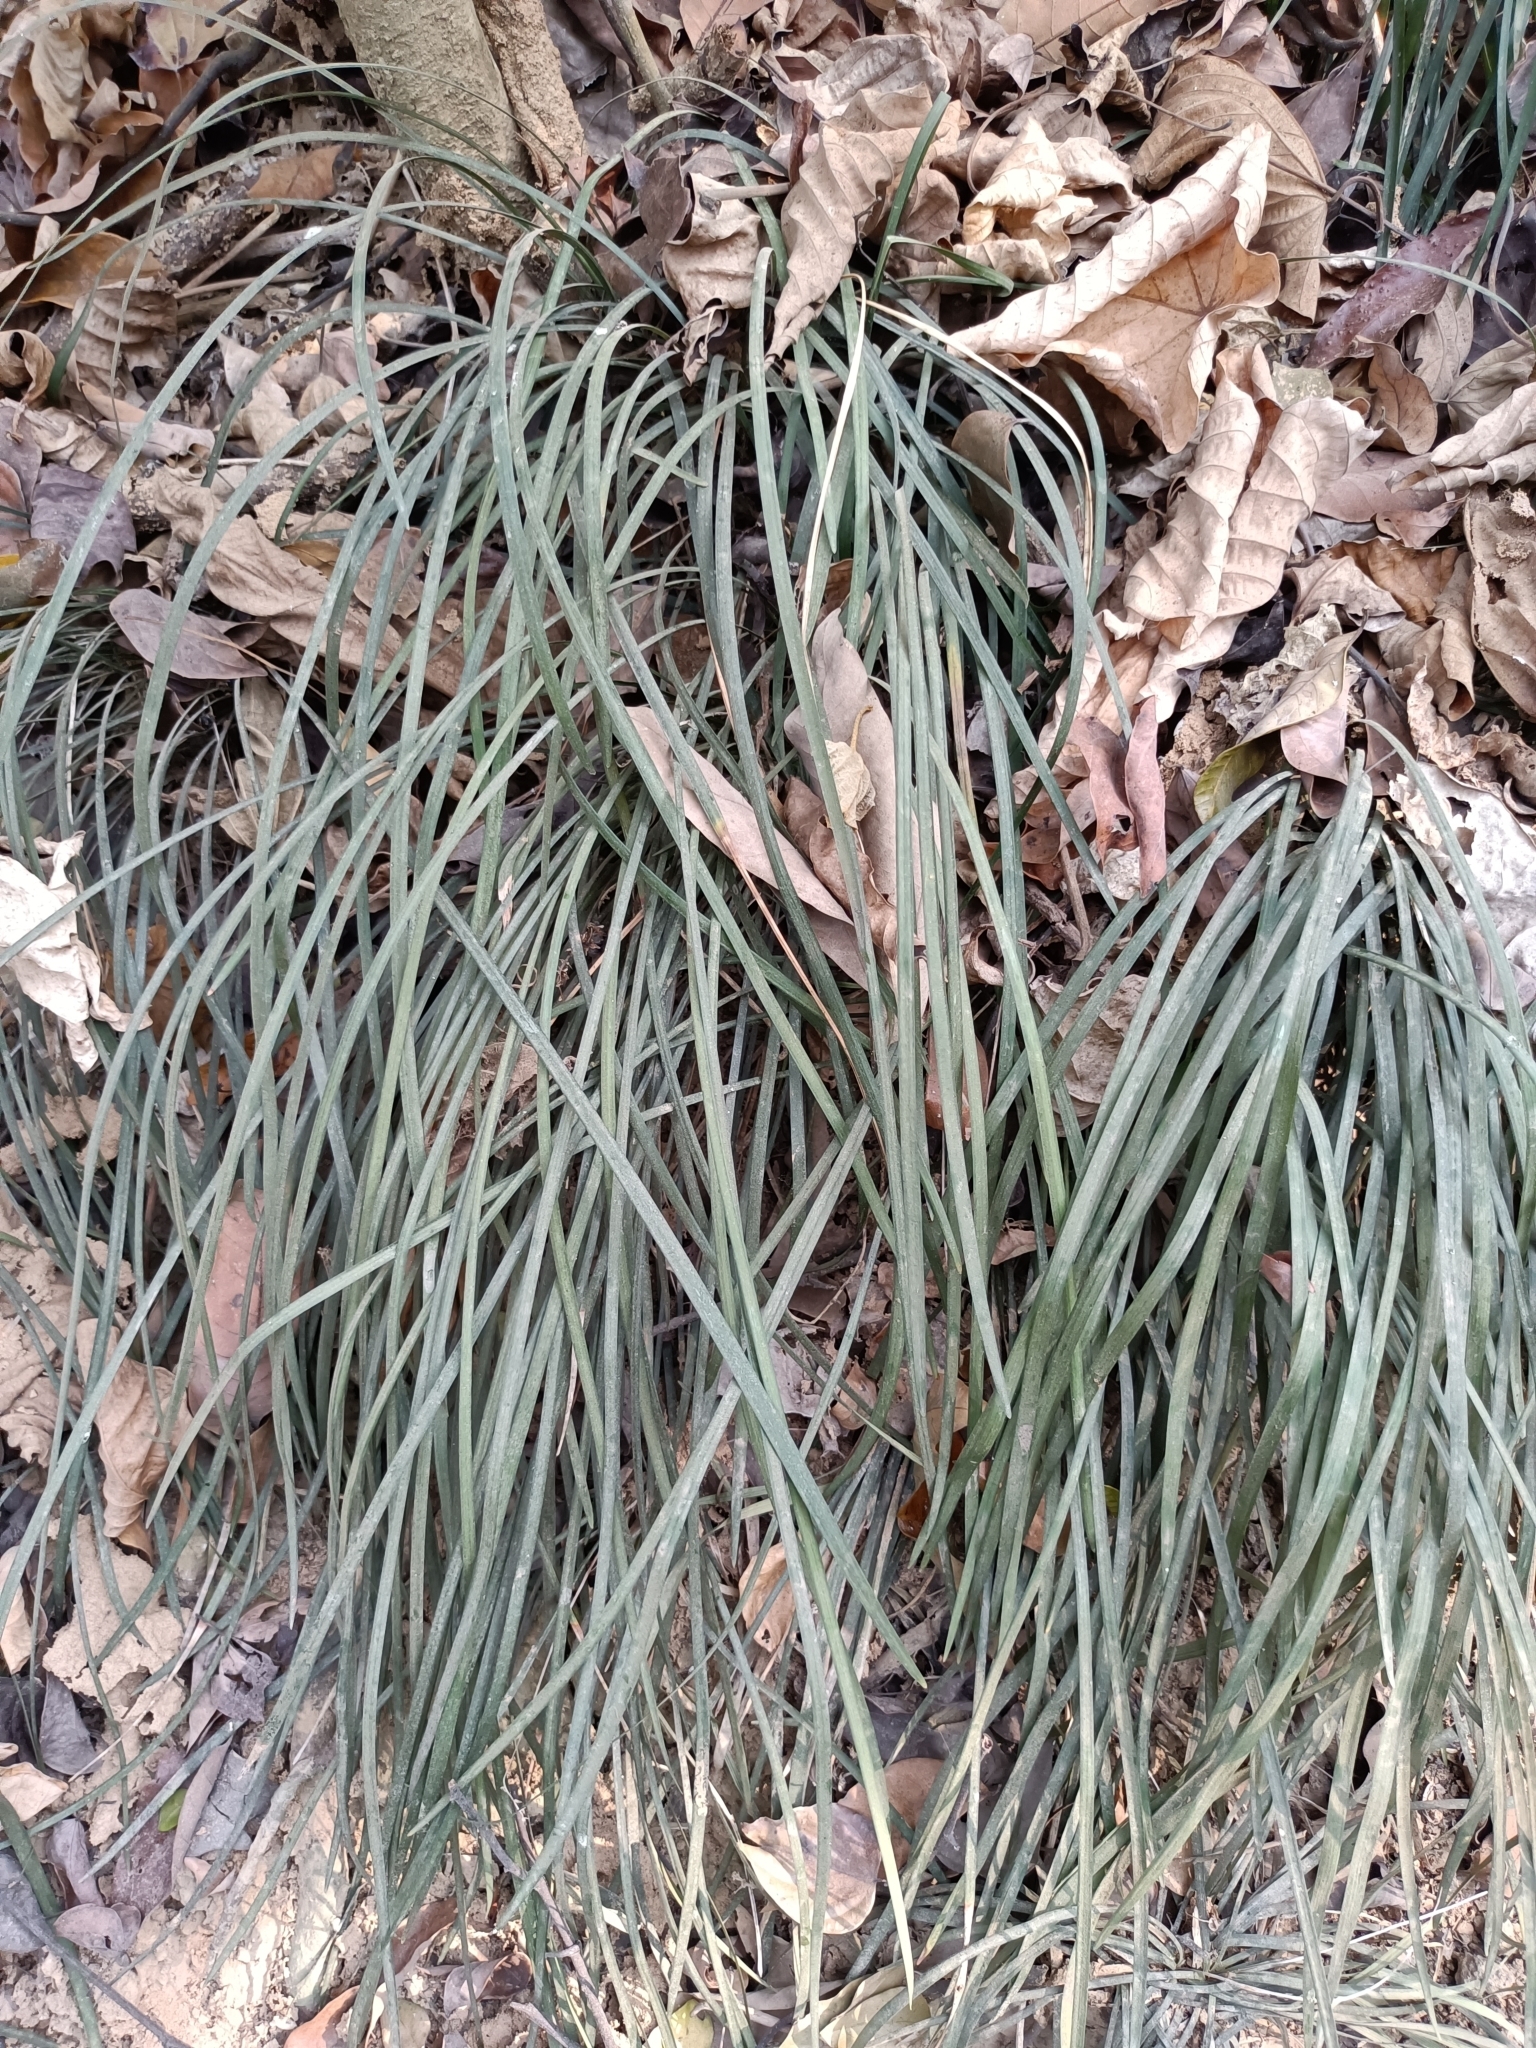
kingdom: Plantae
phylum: Tracheophyta
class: Liliopsida
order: Asparagales
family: Asparagaceae
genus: Ophiopogon
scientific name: Ophiopogon reversus
